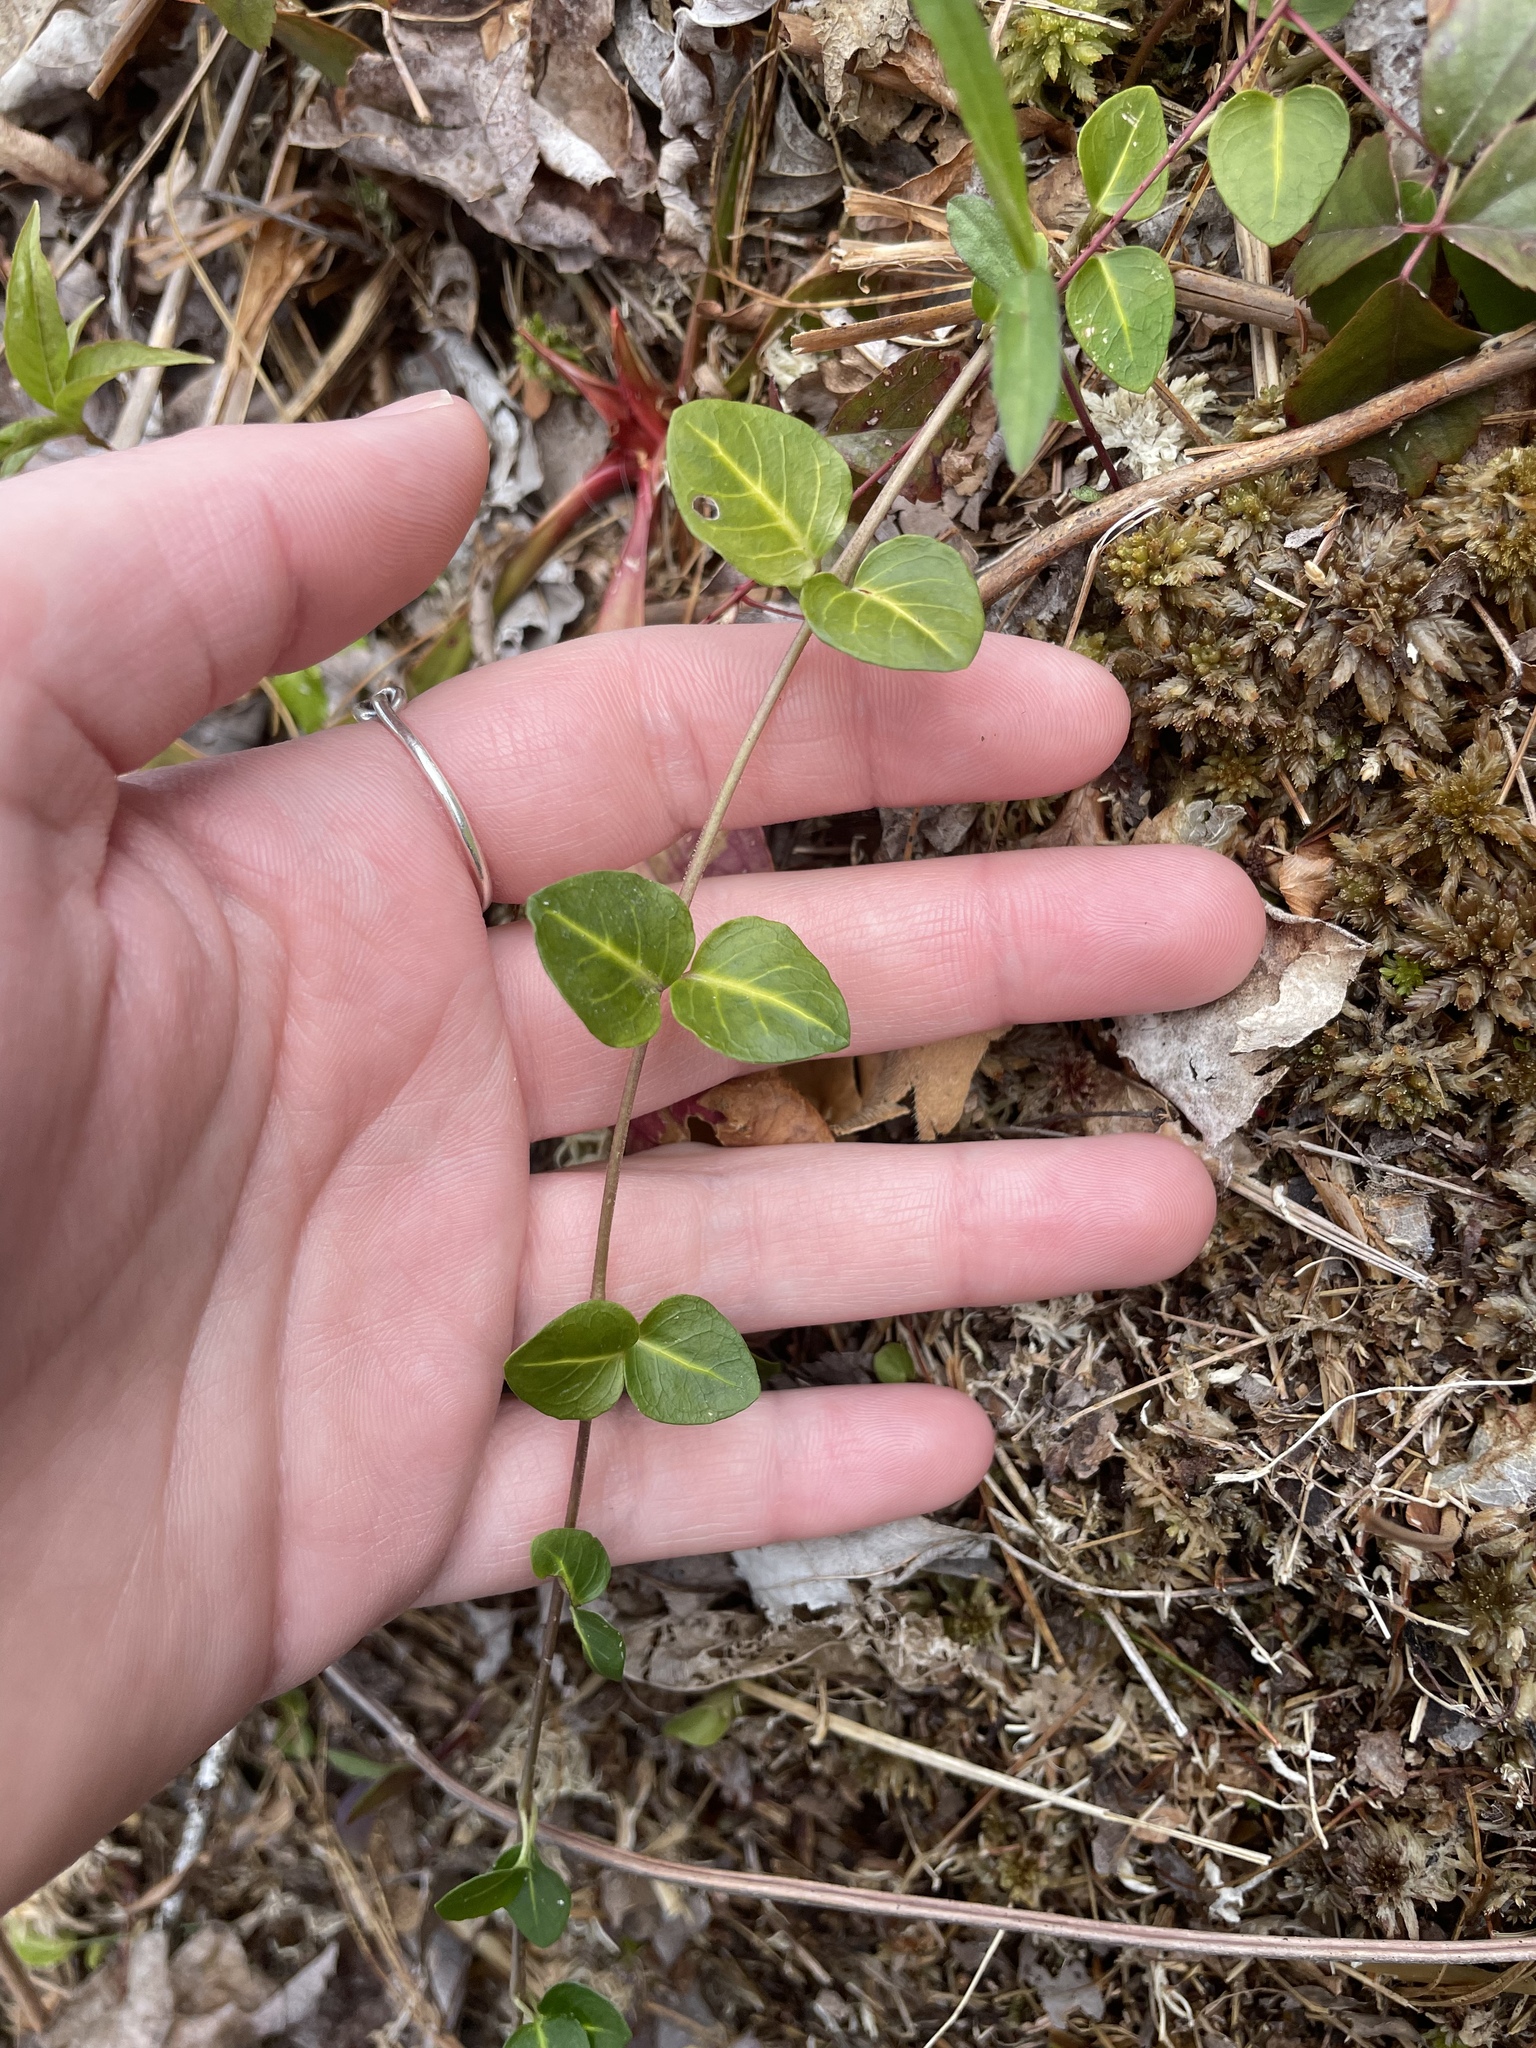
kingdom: Plantae
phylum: Tracheophyta
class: Magnoliopsida
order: Gentianales
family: Rubiaceae
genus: Mitchella
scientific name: Mitchella repens
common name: Partridge-berry
